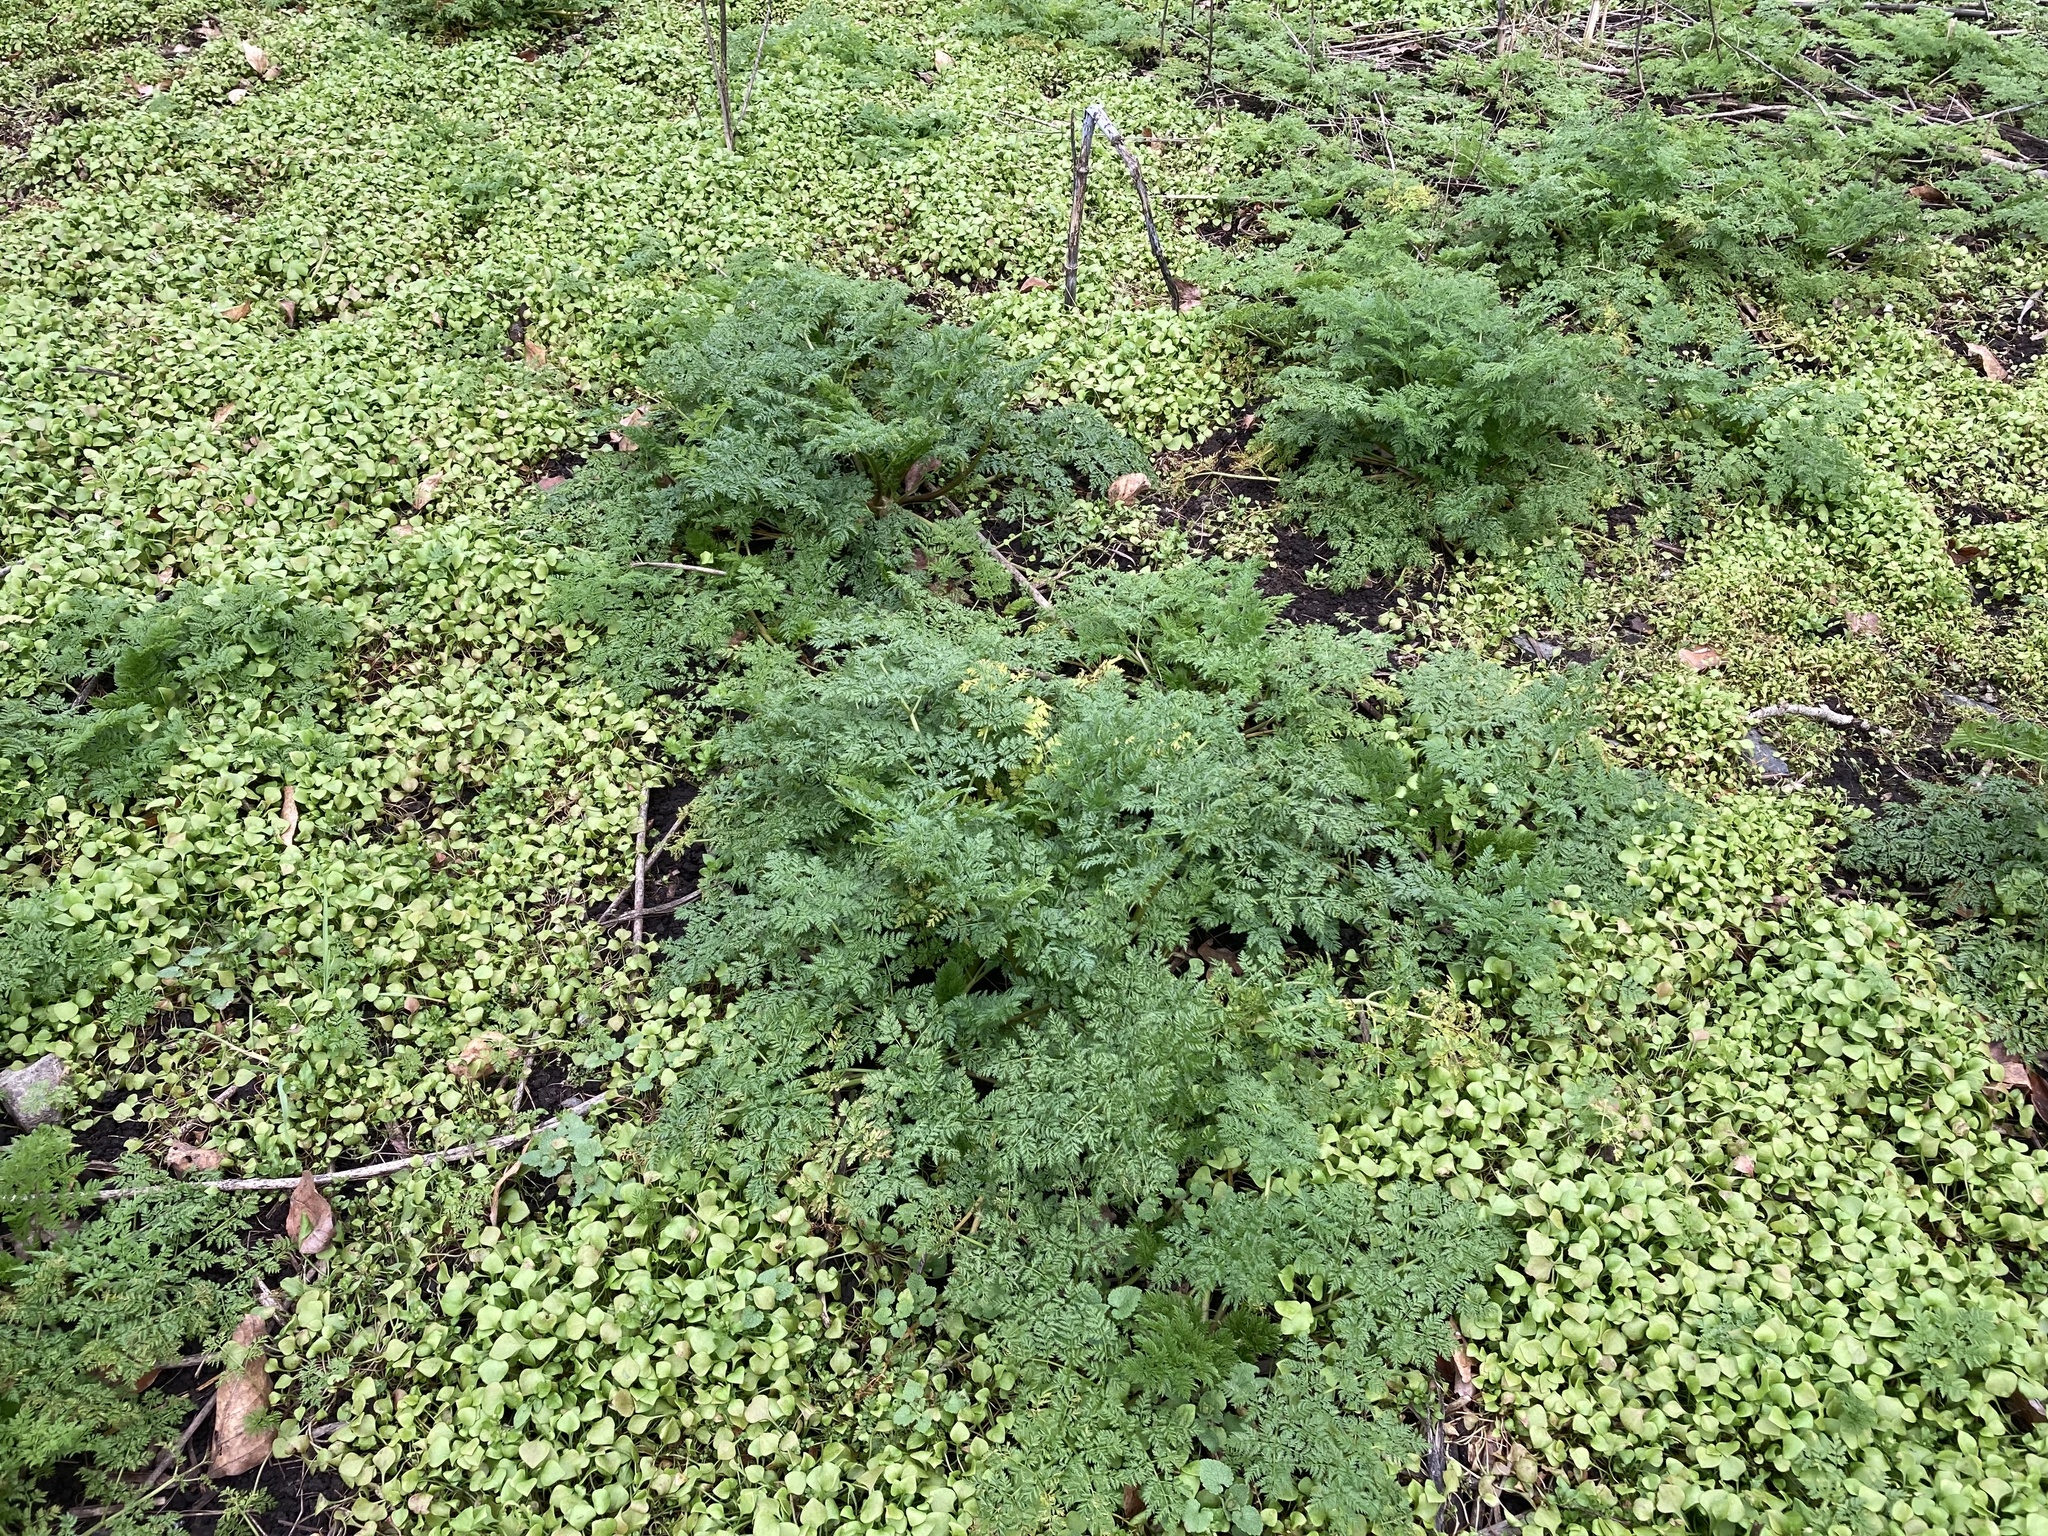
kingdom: Plantae
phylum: Tracheophyta
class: Magnoliopsida
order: Apiales
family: Apiaceae
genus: Conium
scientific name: Conium maculatum
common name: Hemlock
